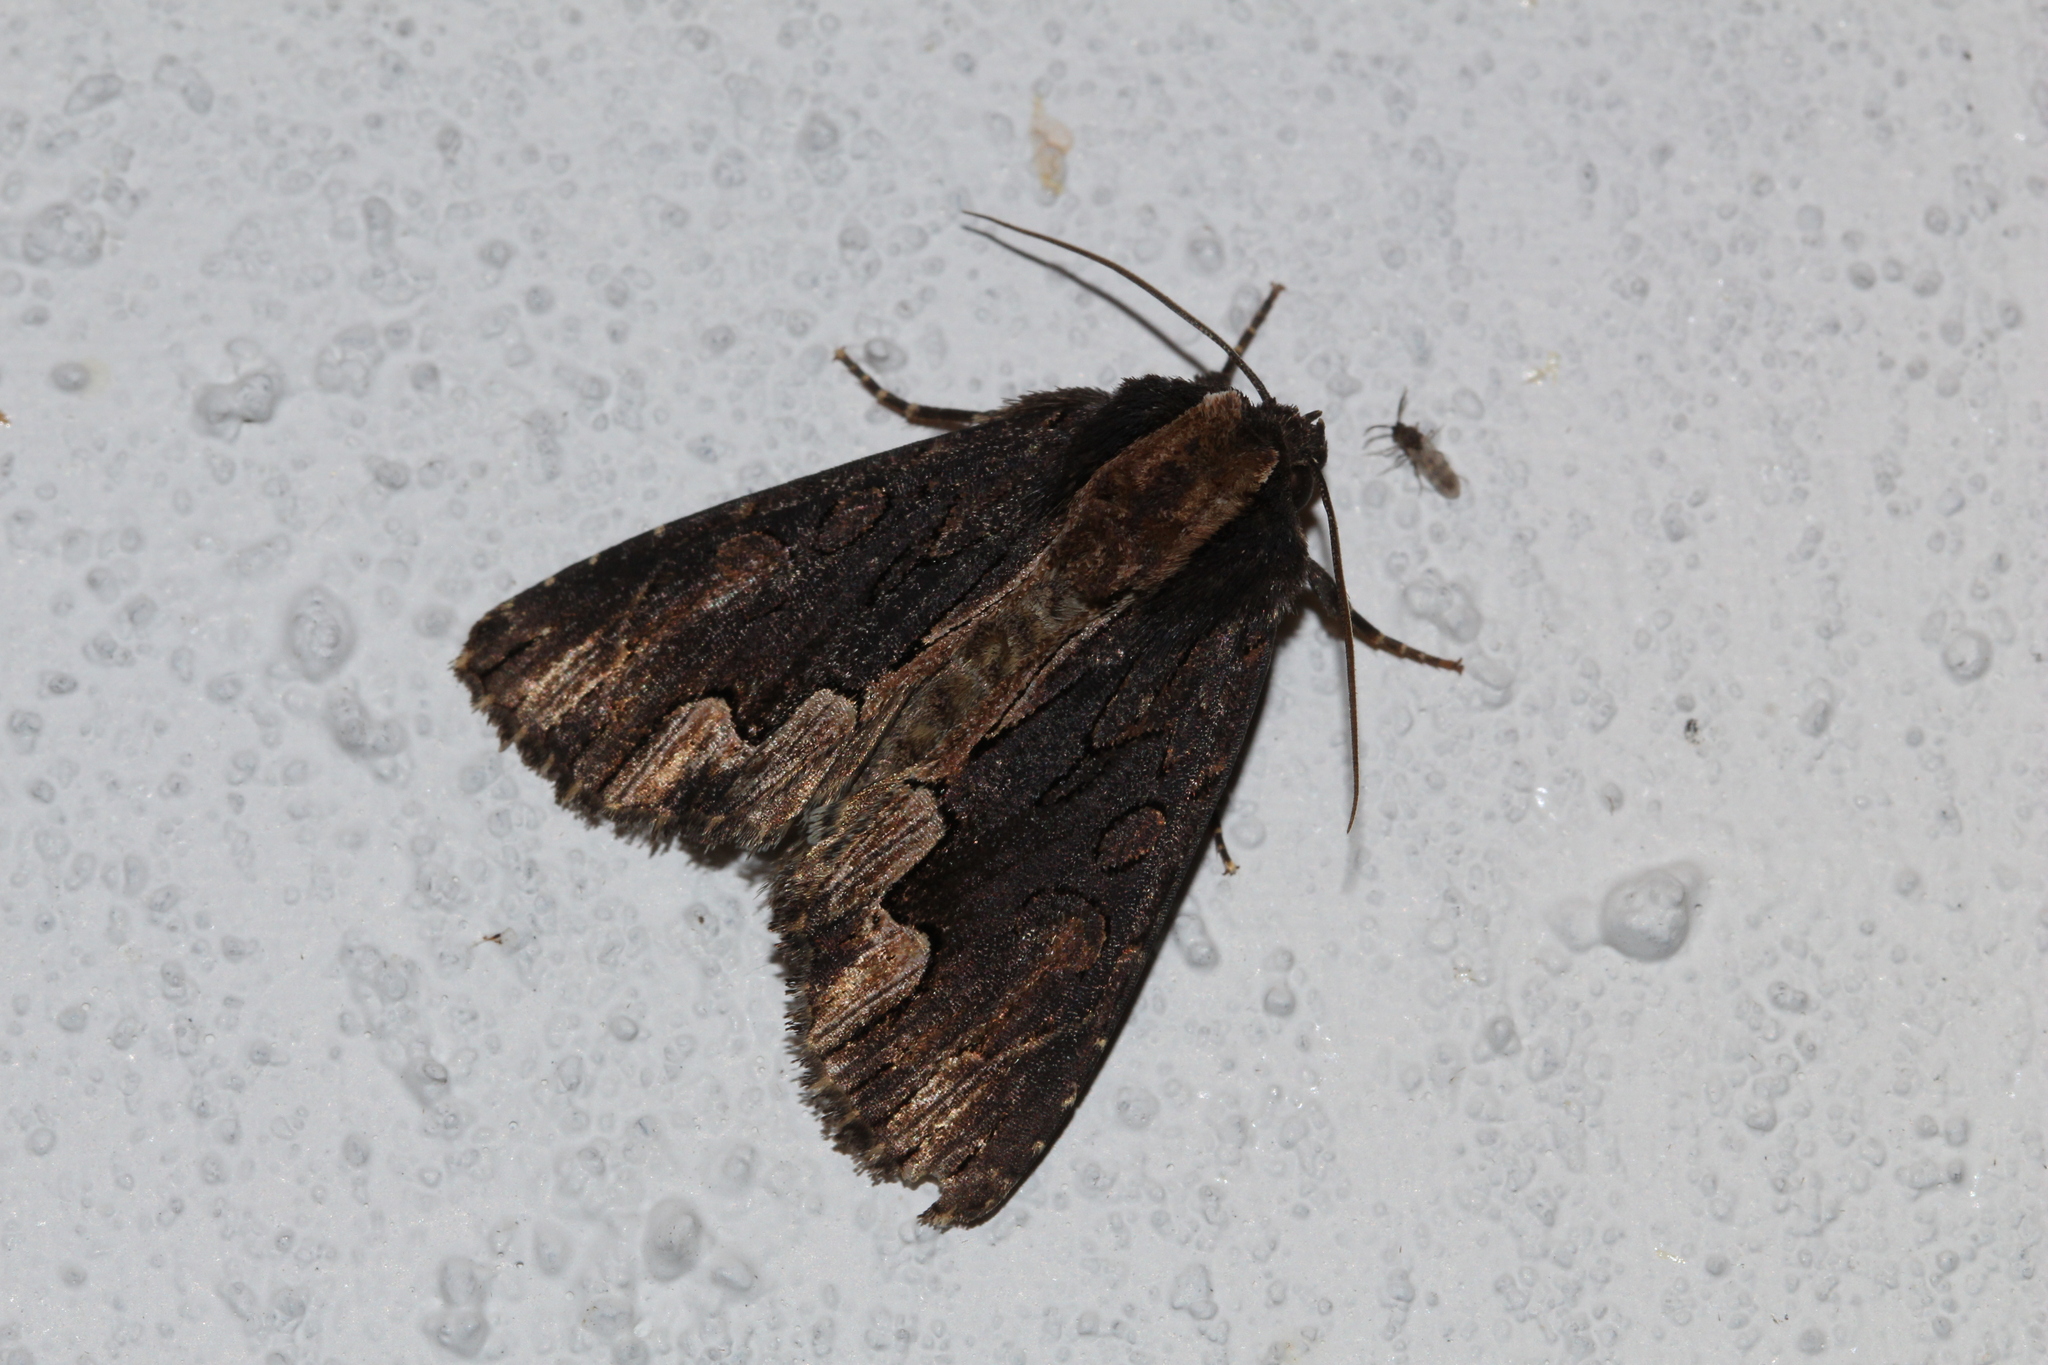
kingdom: Animalia
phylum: Arthropoda
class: Insecta
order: Lepidoptera
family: Noctuidae
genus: Dypterygia
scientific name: Dypterygia scabriuscula
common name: Bird's wing
